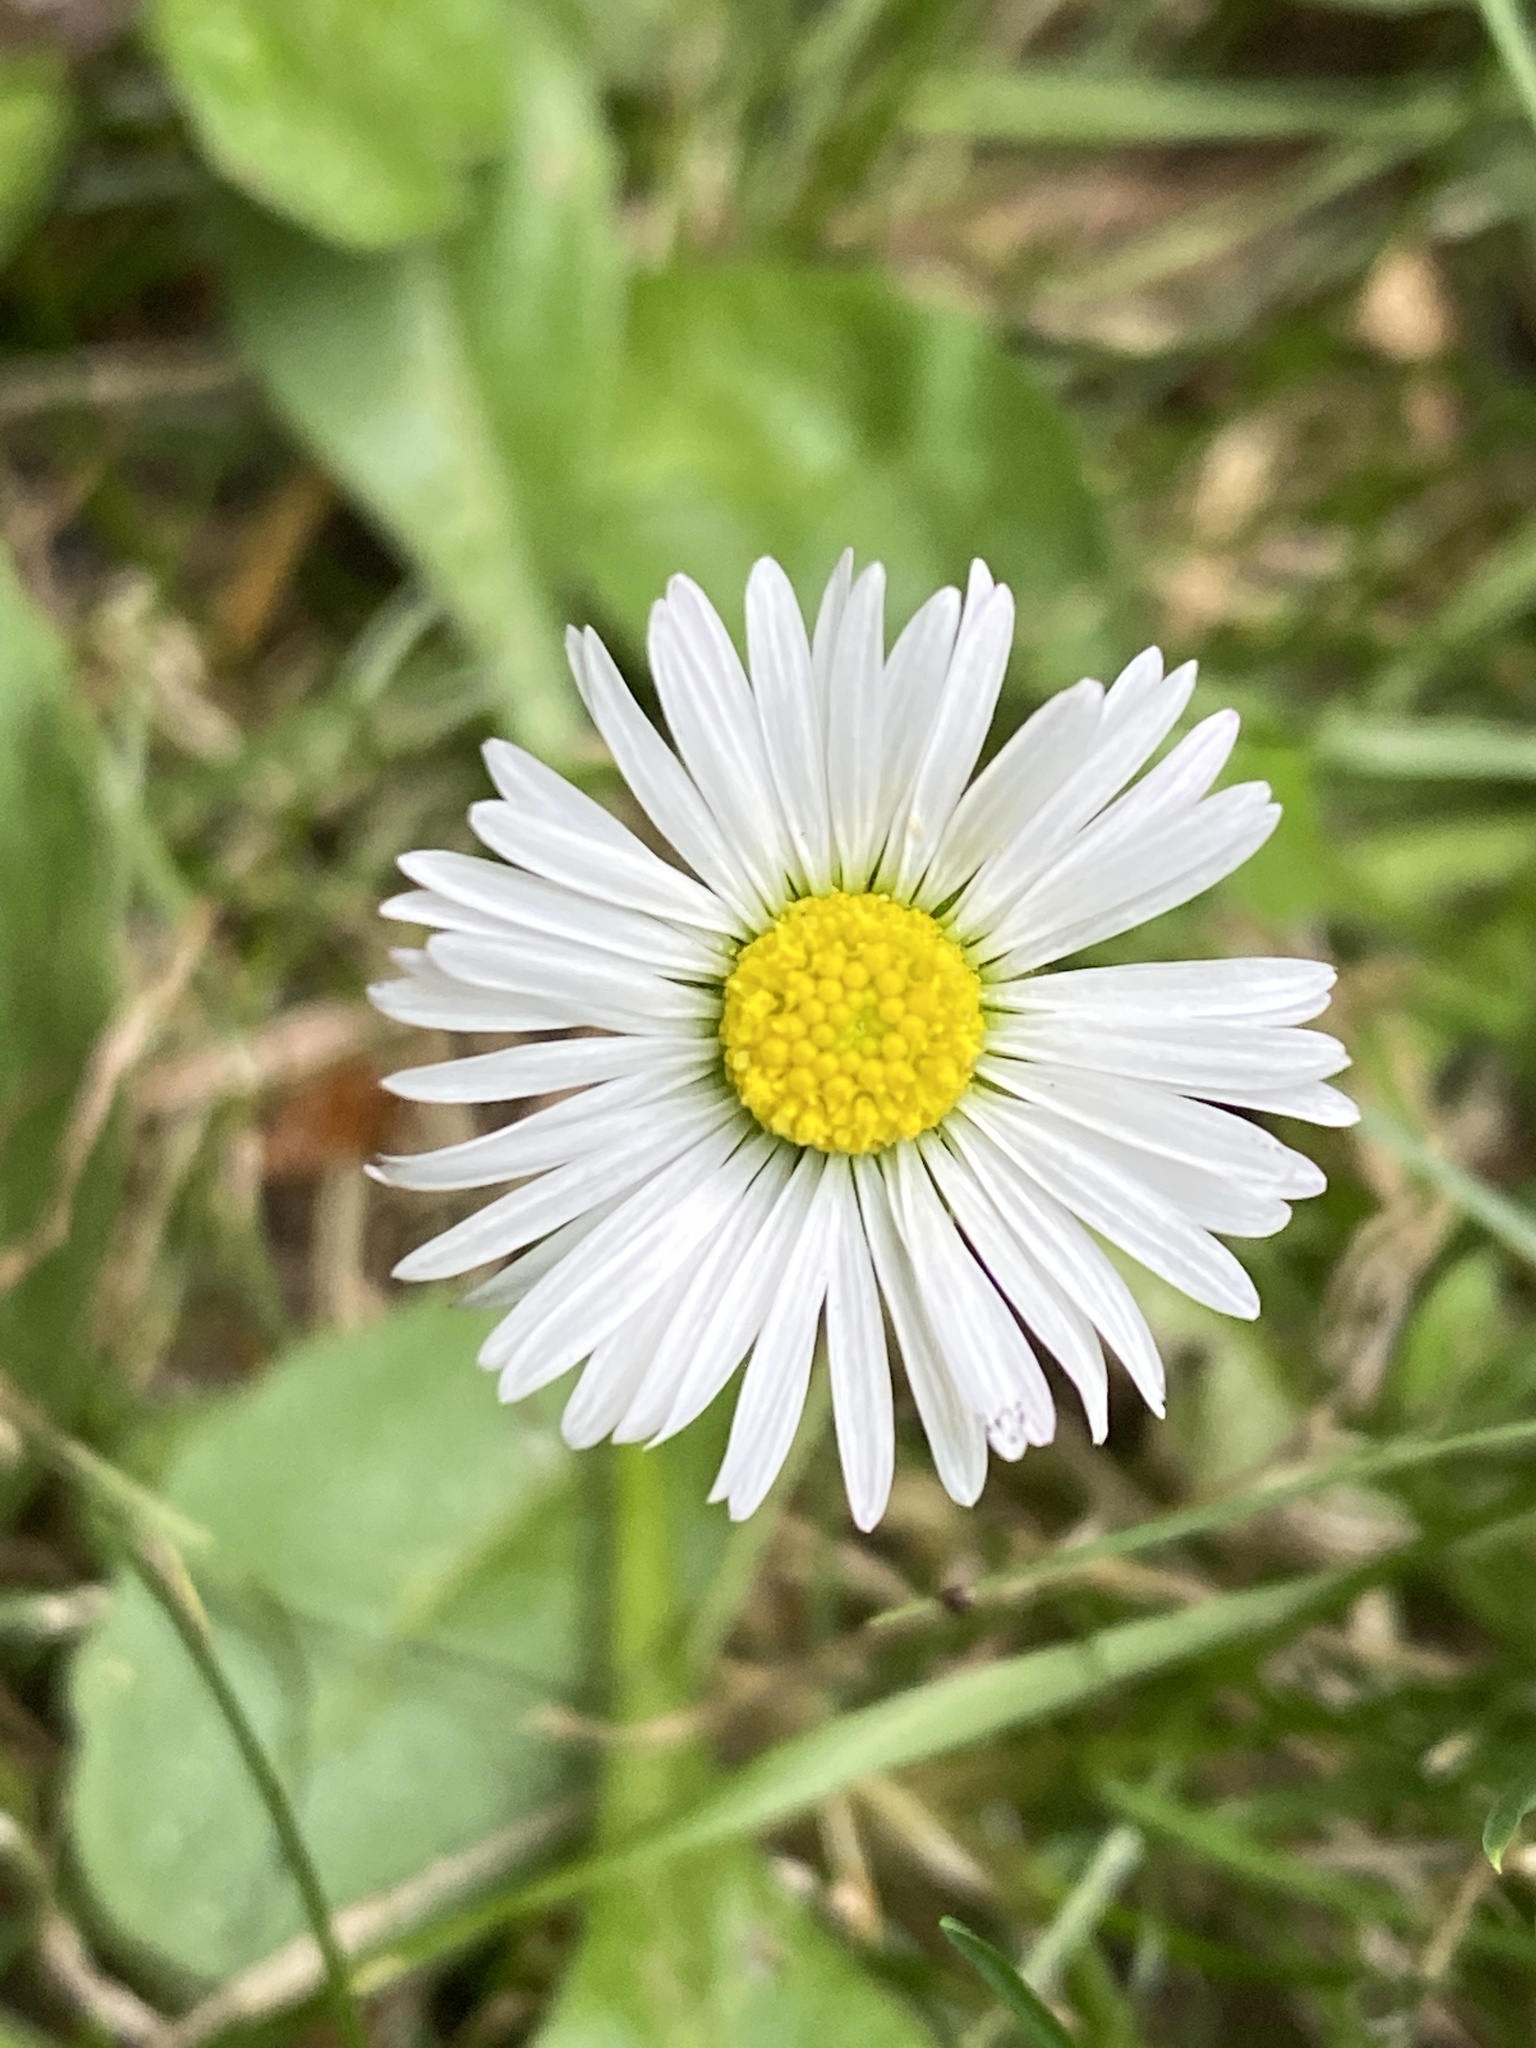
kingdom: Plantae
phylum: Tracheophyta
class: Magnoliopsida
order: Asterales
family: Asteraceae
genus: Bellis
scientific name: Bellis perennis
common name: Lawndaisy
